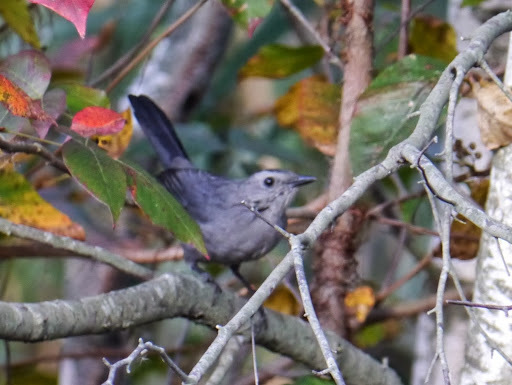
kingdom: Animalia
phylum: Chordata
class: Aves
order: Passeriformes
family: Mimidae
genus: Dumetella
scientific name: Dumetella carolinensis
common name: Gray catbird
